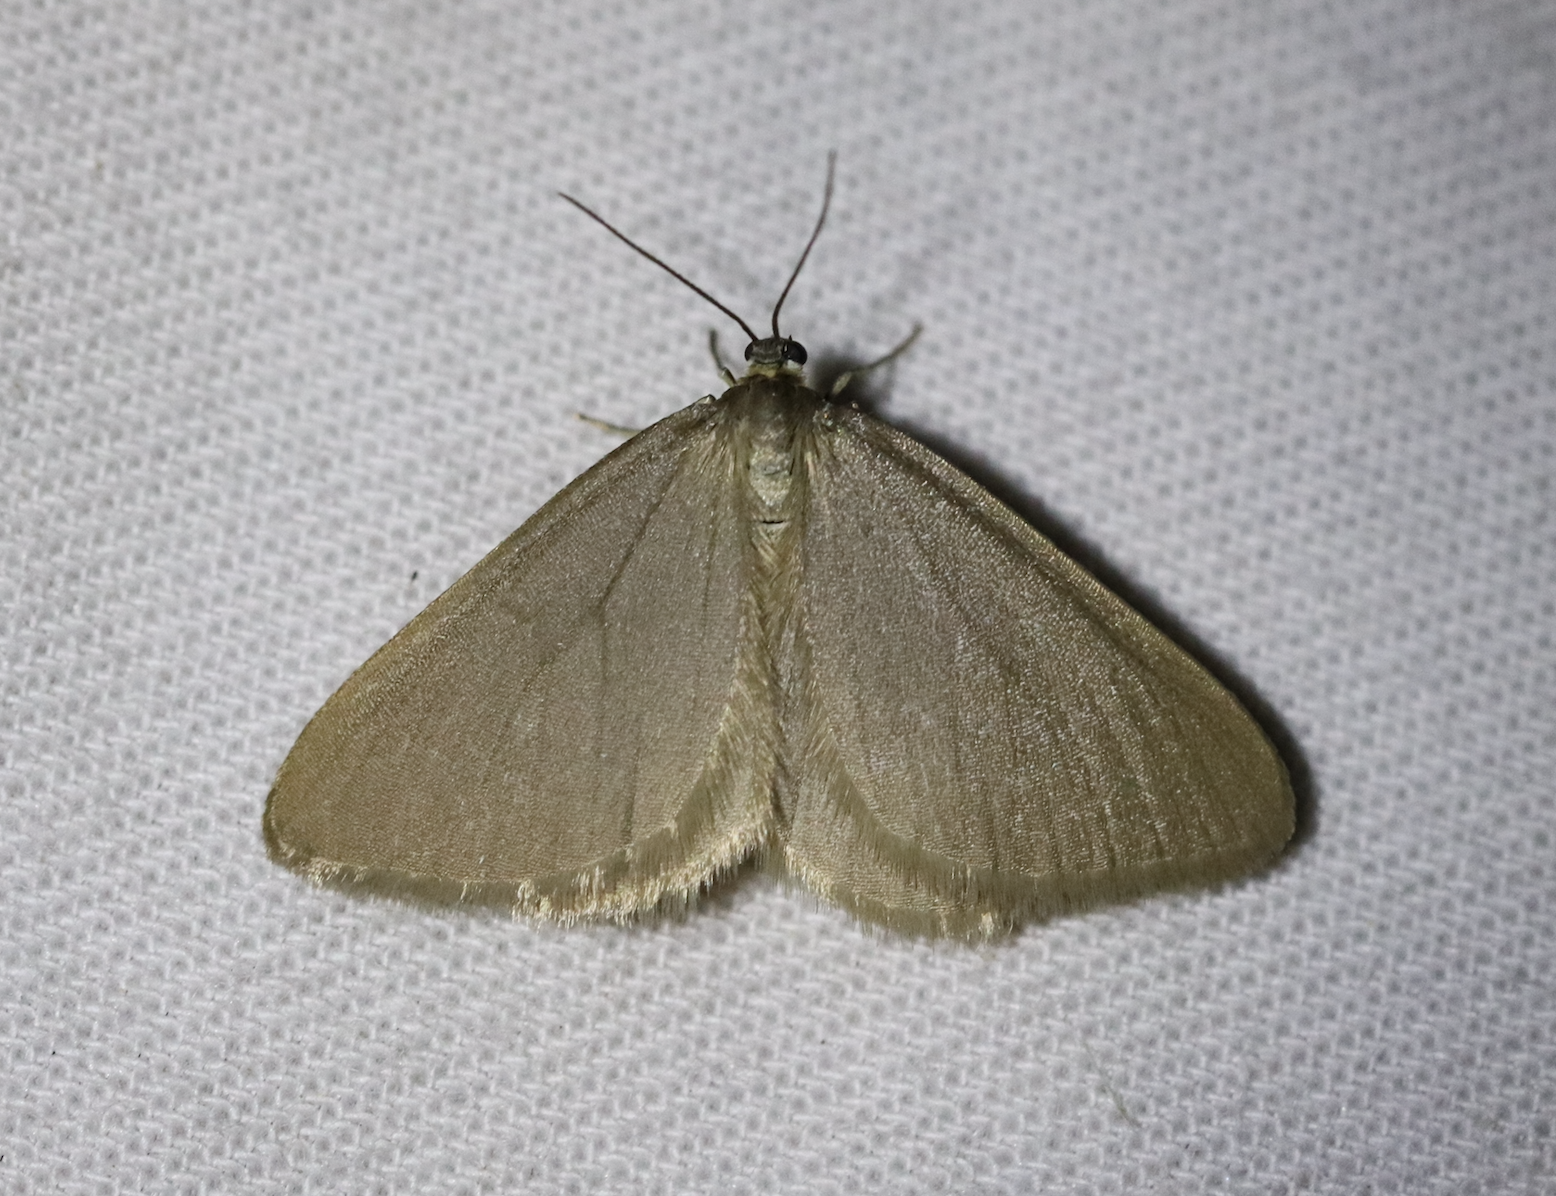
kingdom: Animalia
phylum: Arthropoda
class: Insecta
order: Lepidoptera
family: Geometridae
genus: Minoa
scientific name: Minoa murinata
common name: Drab looper
